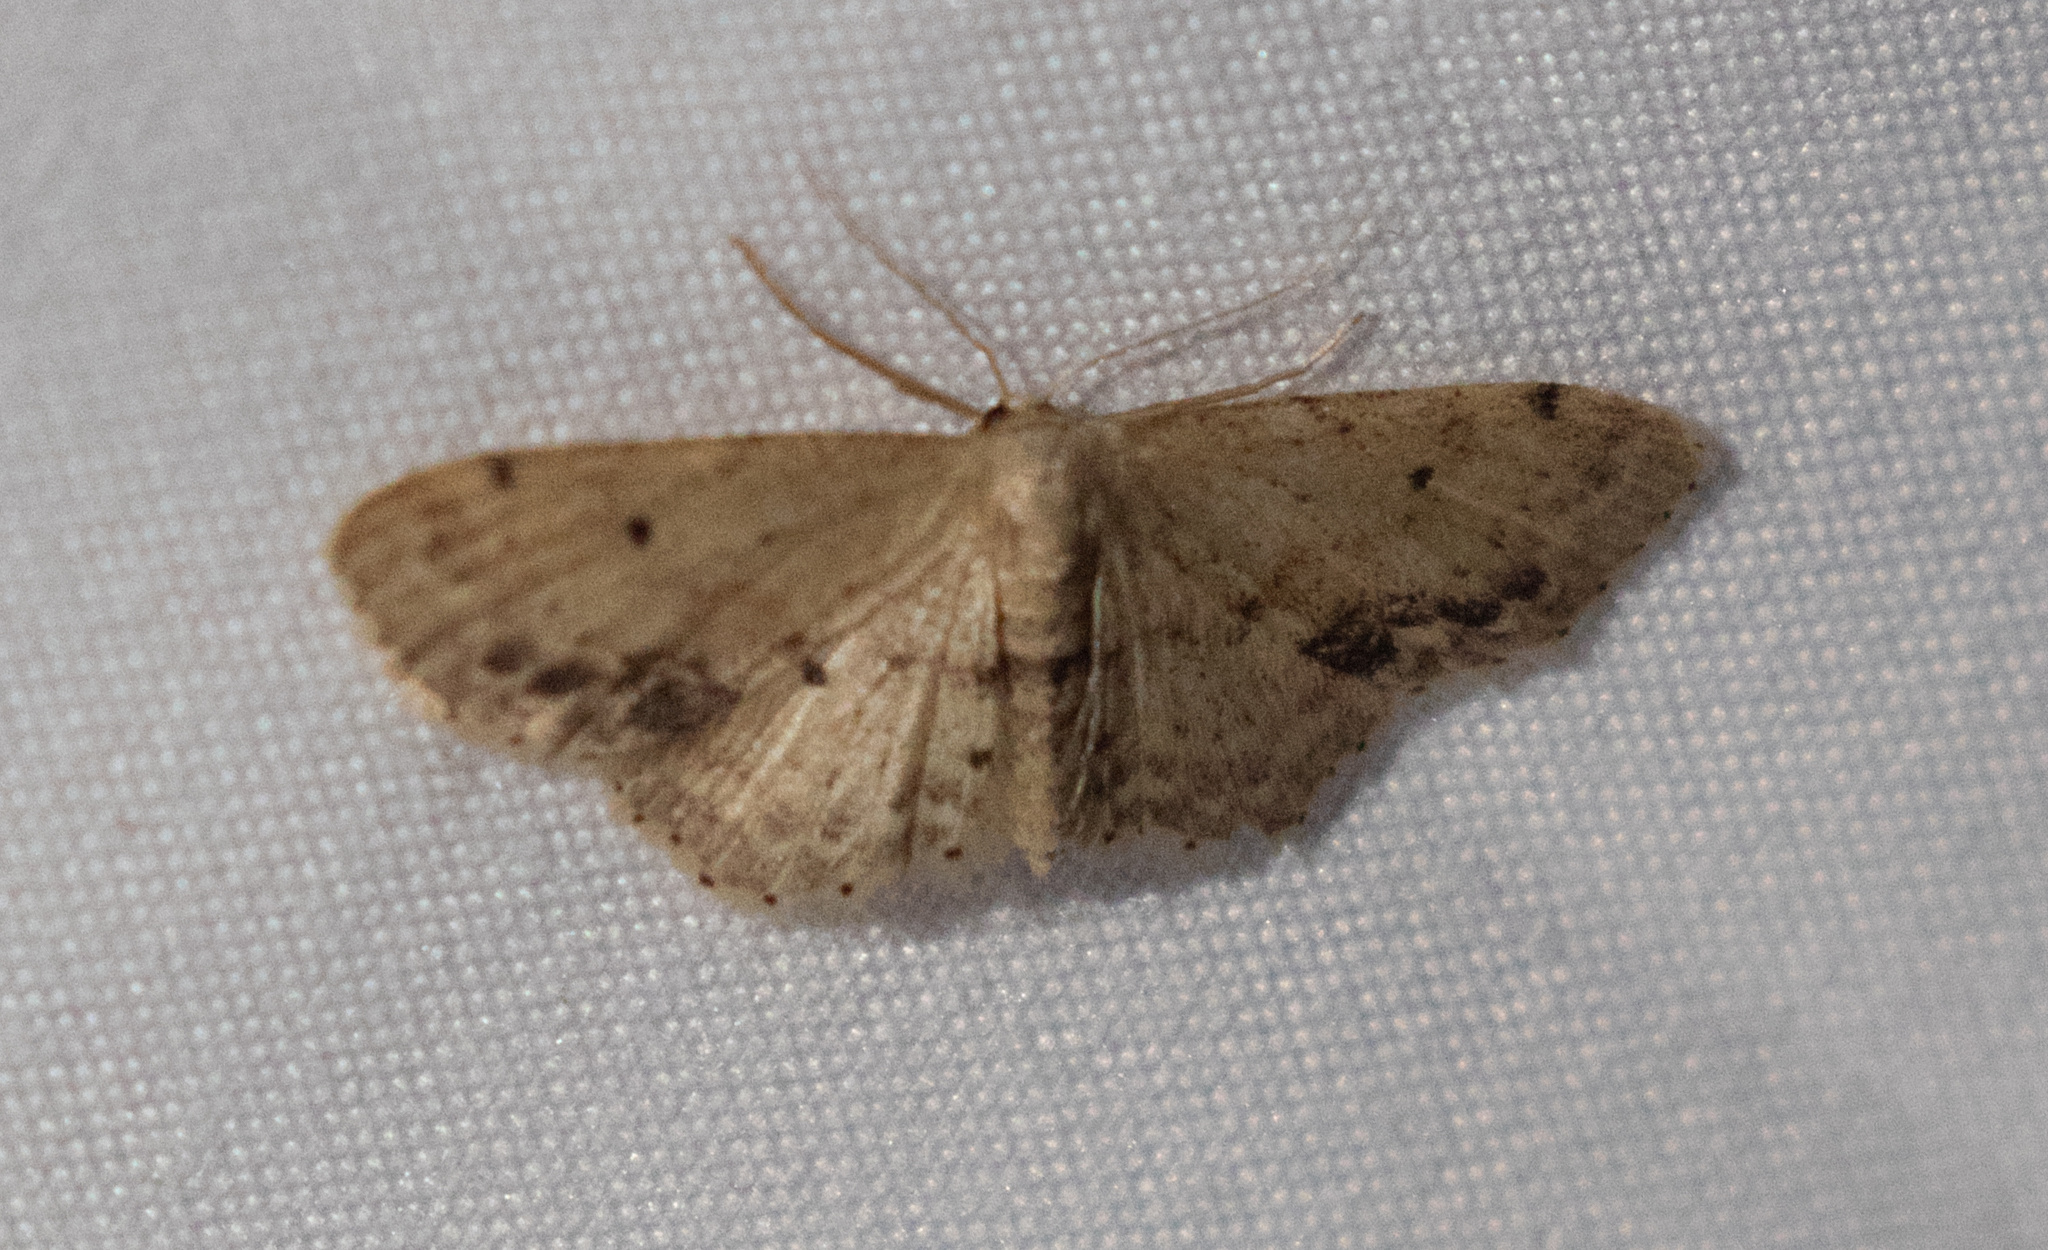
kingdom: Animalia
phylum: Arthropoda
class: Insecta
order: Lepidoptera
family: Geometridae
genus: Idaea
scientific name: Idaea dimidiata
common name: Single-dotted wave
